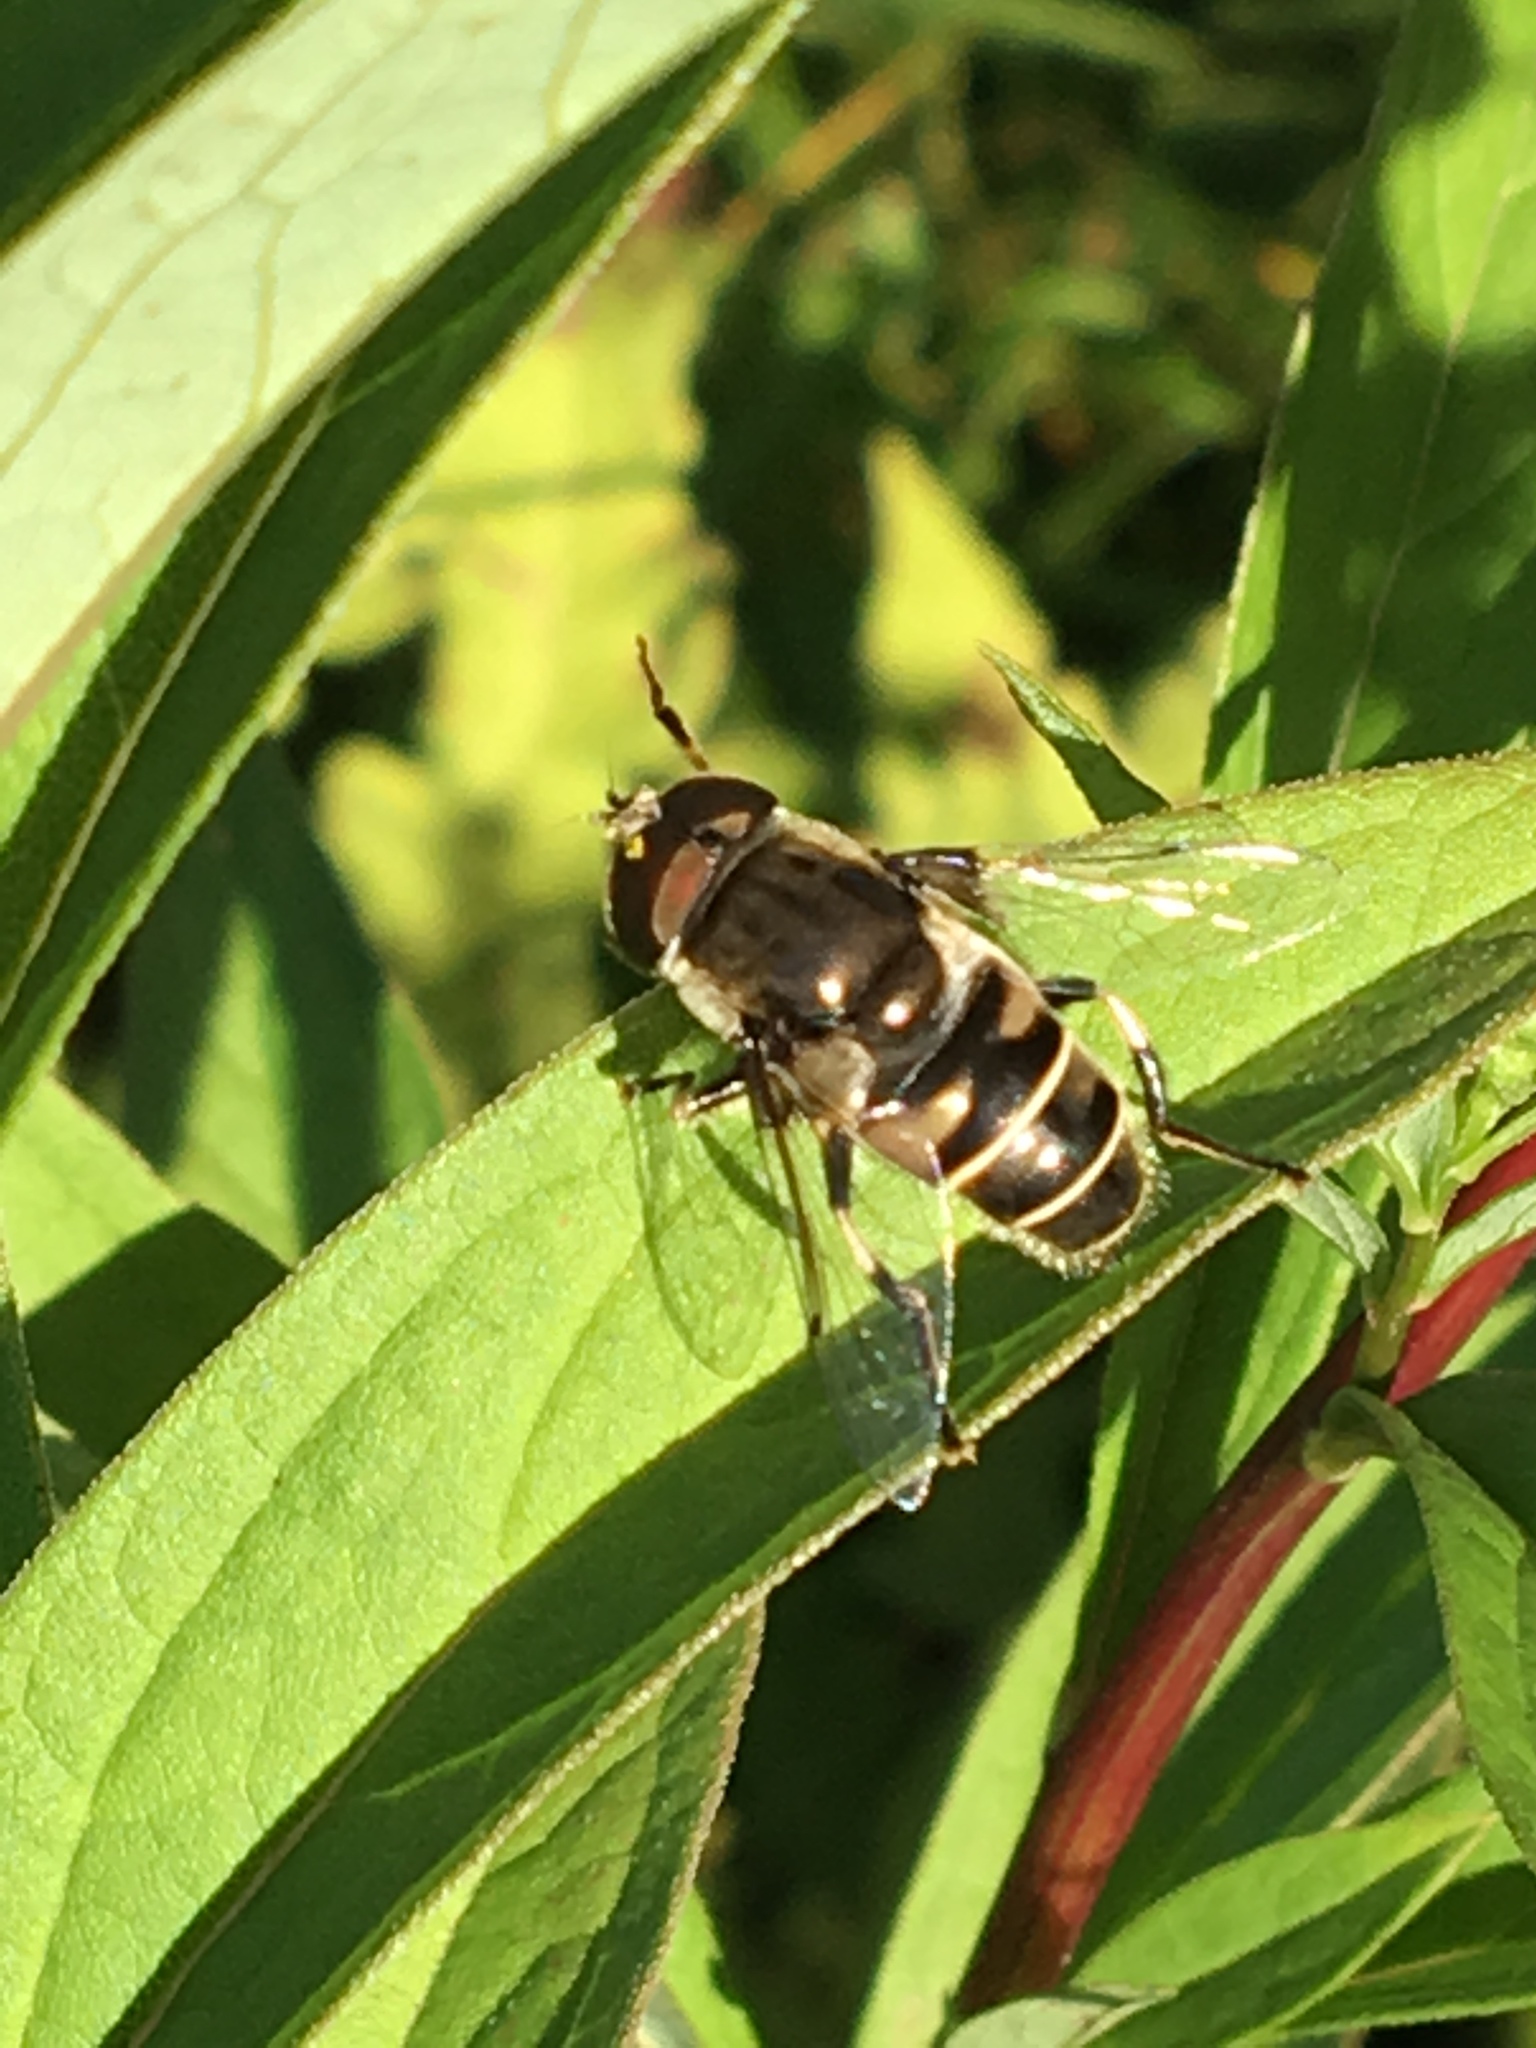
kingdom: Animalia
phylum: Arthropoda
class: Insecta
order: Diptera
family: Syrphidae
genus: Eristalis
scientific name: Eristalis dimidiata
